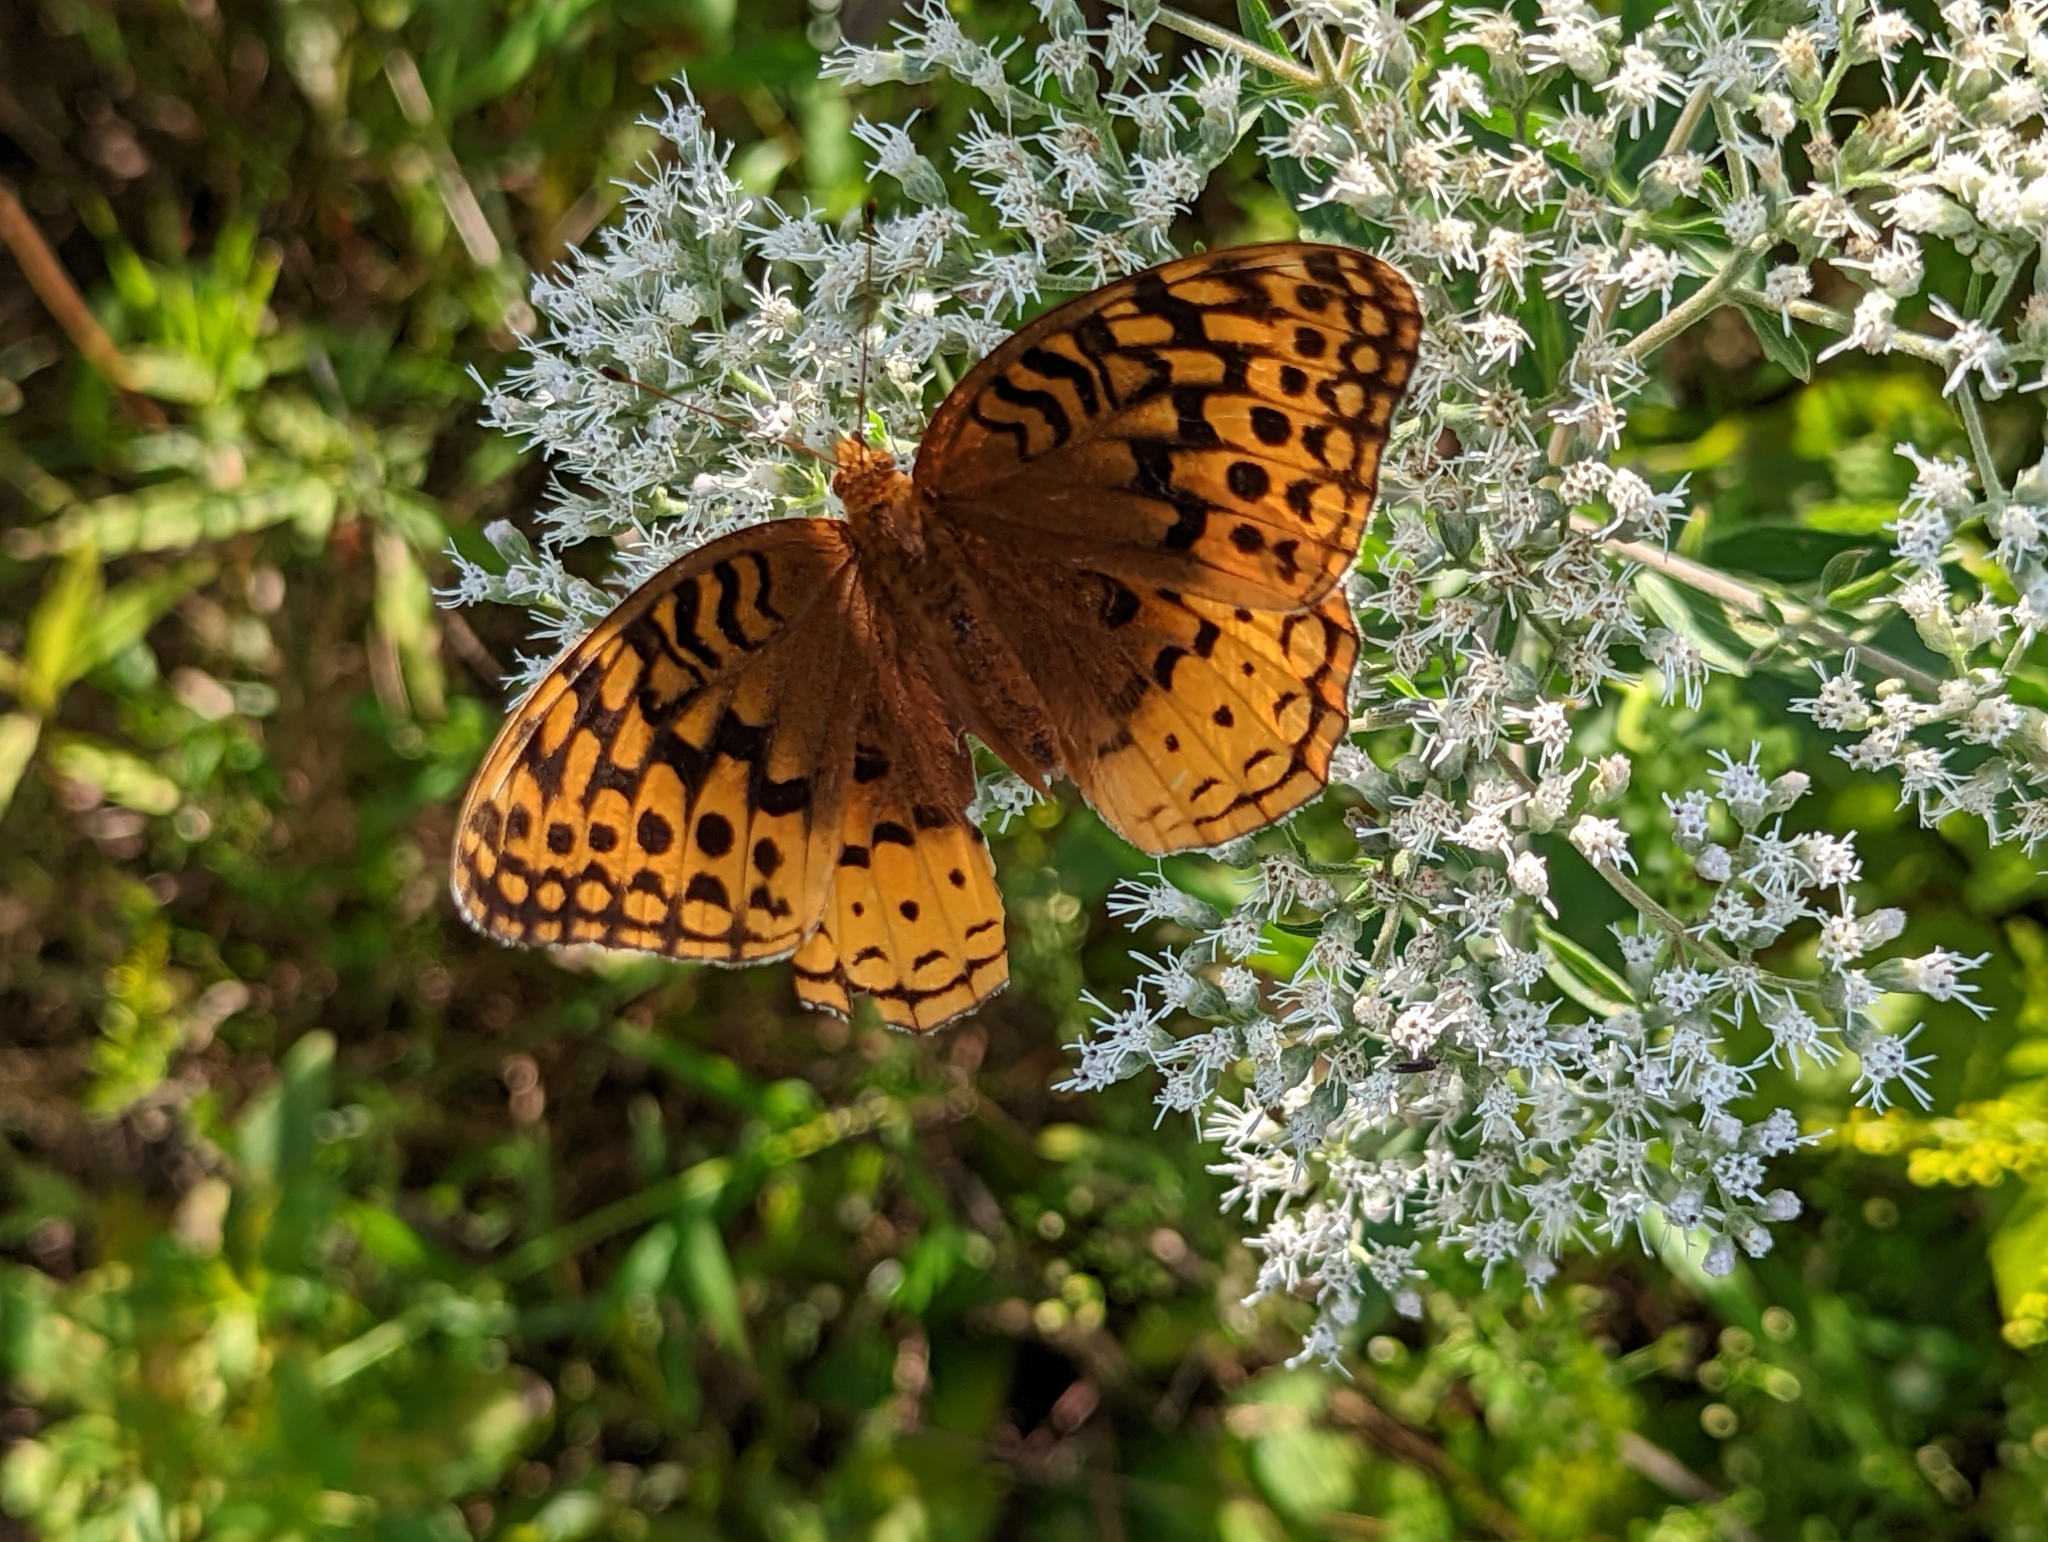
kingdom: Animalia
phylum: Arthropoda
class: Insecta
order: Lepidoptera
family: Nymphalidae
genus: Speyeria
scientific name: Speyeria cybele
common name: Great spangled fritillary
